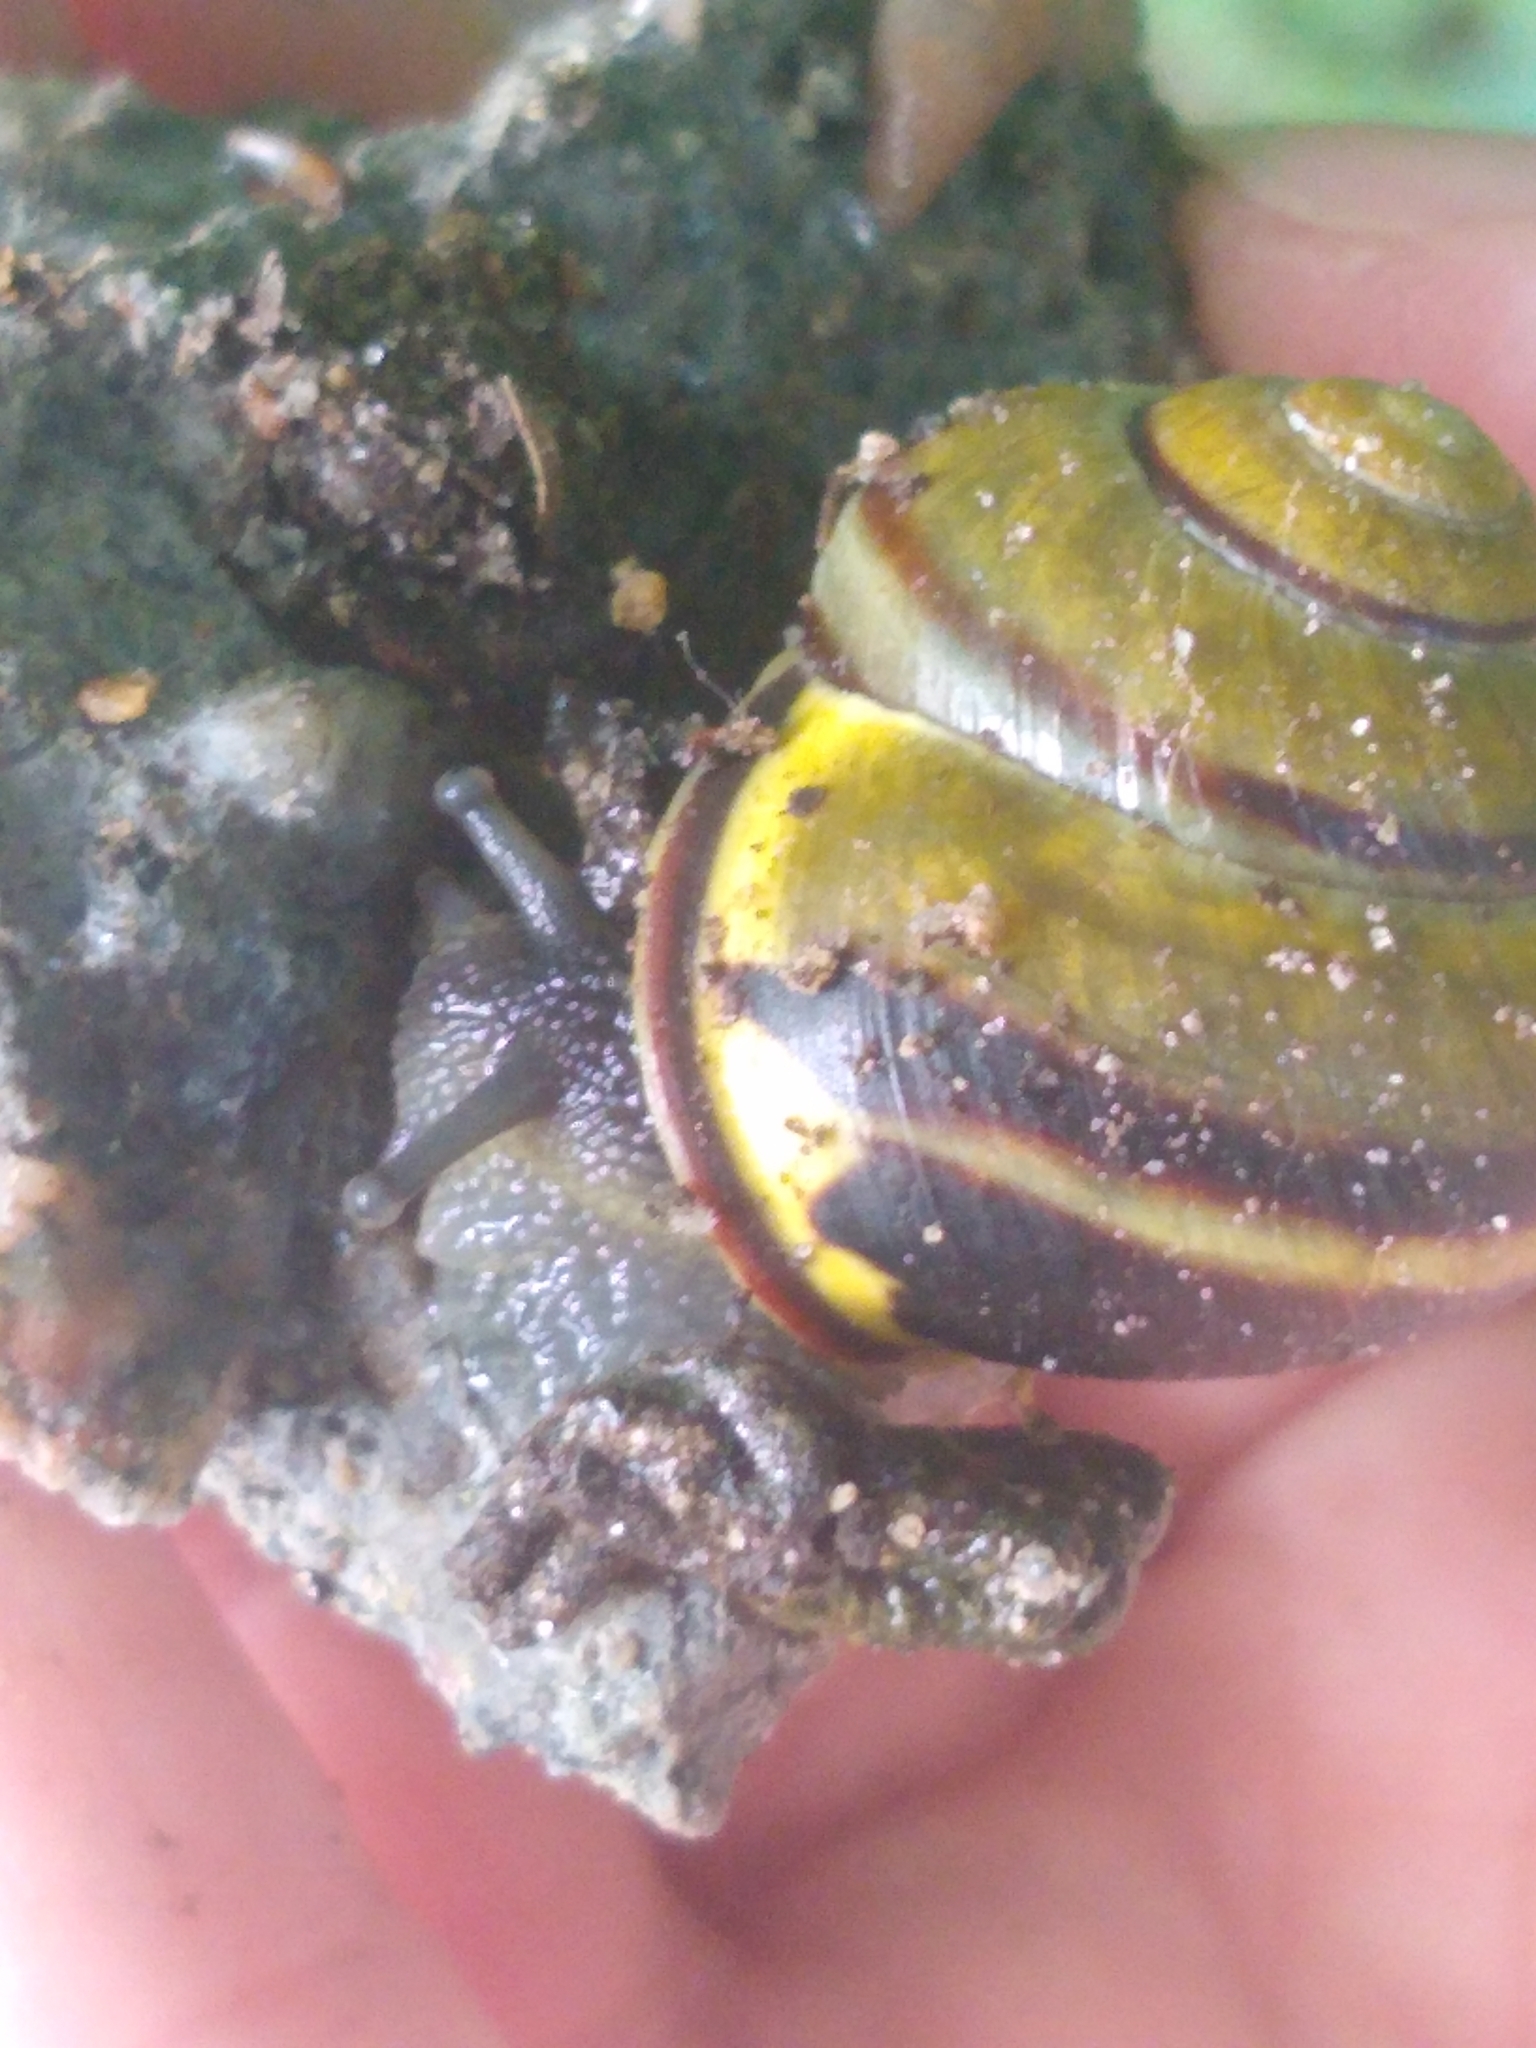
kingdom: Animalia
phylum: Mollusca
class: Gastropoda
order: Stylommatophora
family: Helicidae
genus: Cepaea
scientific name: Cepaea nemoralis
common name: Grovesnail
